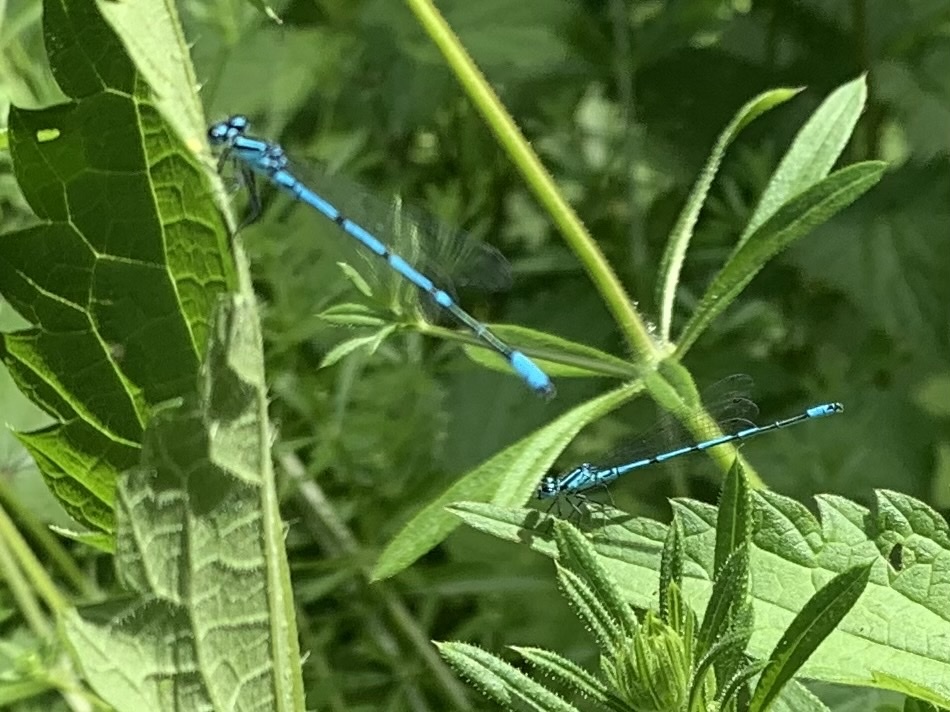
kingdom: Animalia
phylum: Arthropoda
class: Insecta
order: Odonata
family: Coenagrionidae
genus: Coenagrion
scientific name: Coenagrion puella
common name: Azure damselfly
